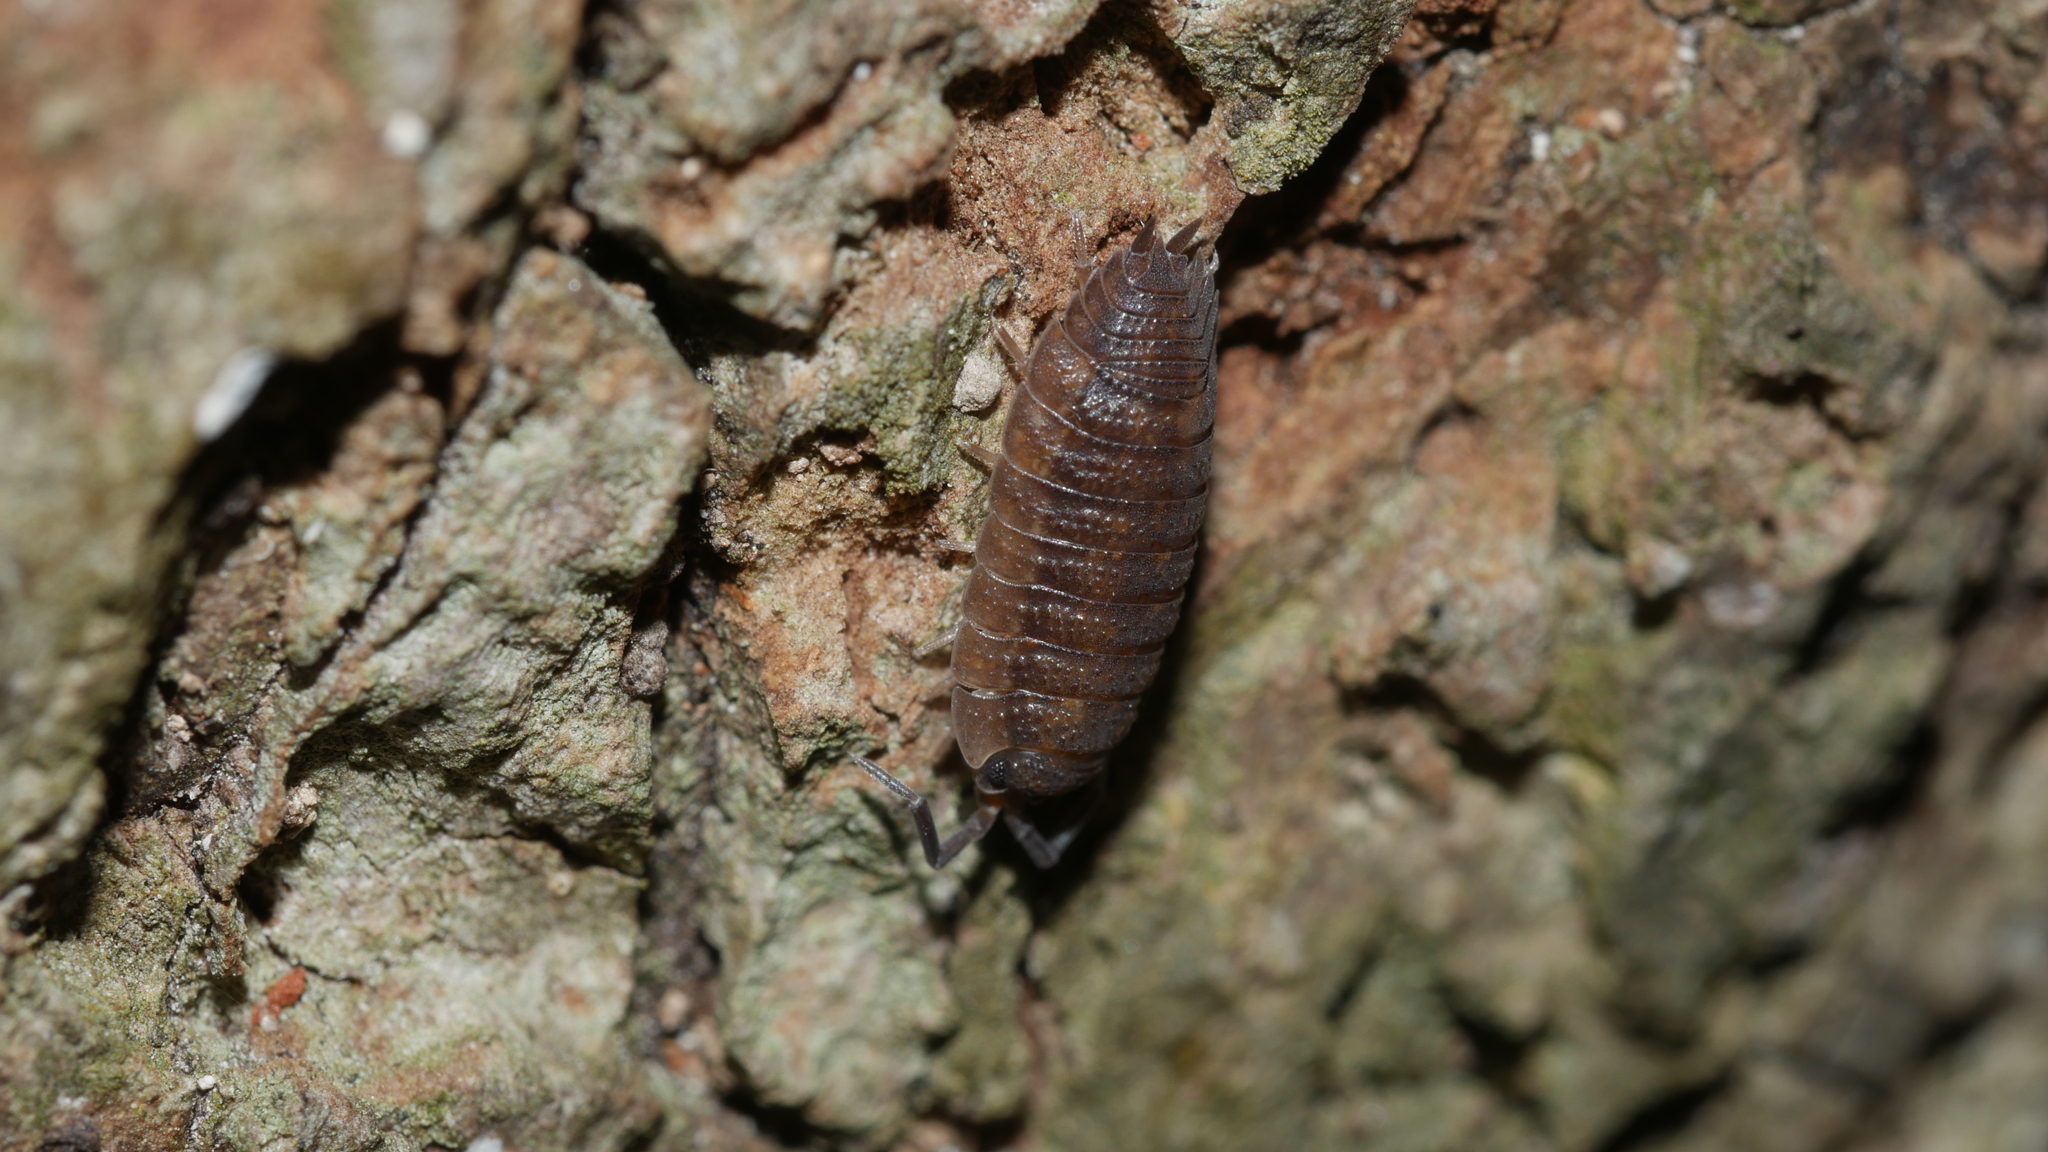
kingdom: Animalia
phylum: Arthropoda
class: Malacostraca
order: Isopoda
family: Porcellionidae
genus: Porcellio
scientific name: Porcellio scaber
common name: Common rough woodlouse
